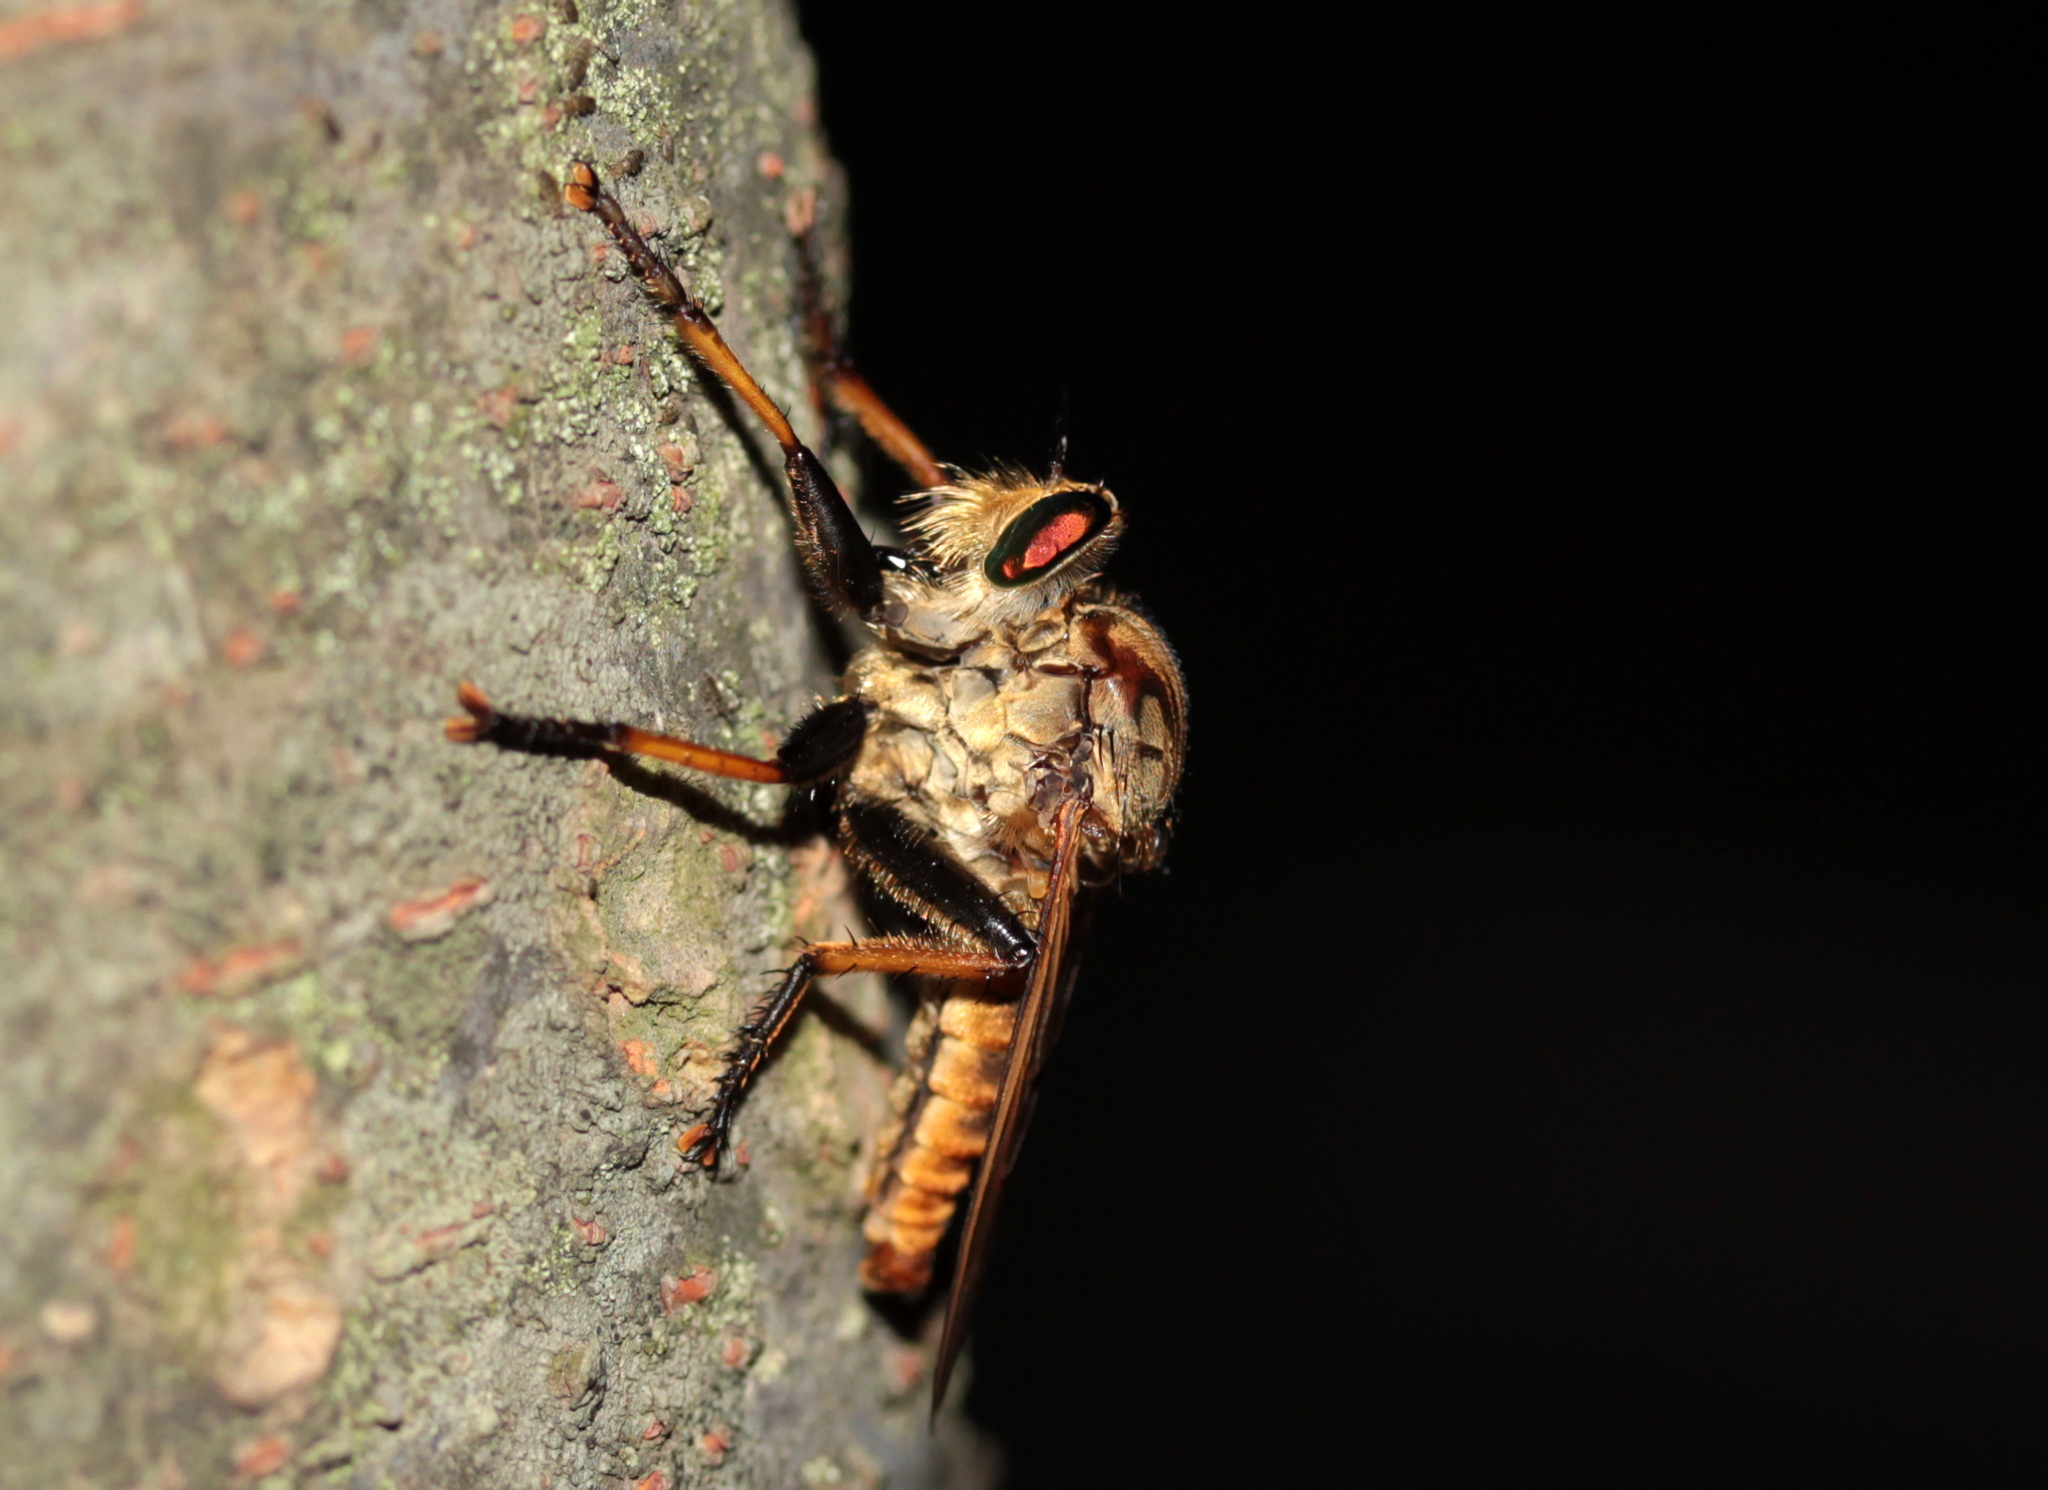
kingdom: Animalia
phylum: Arthropoda
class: Insecta
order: Diptera
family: Asilidae
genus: Cophinopoda
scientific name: Cophinopoda
